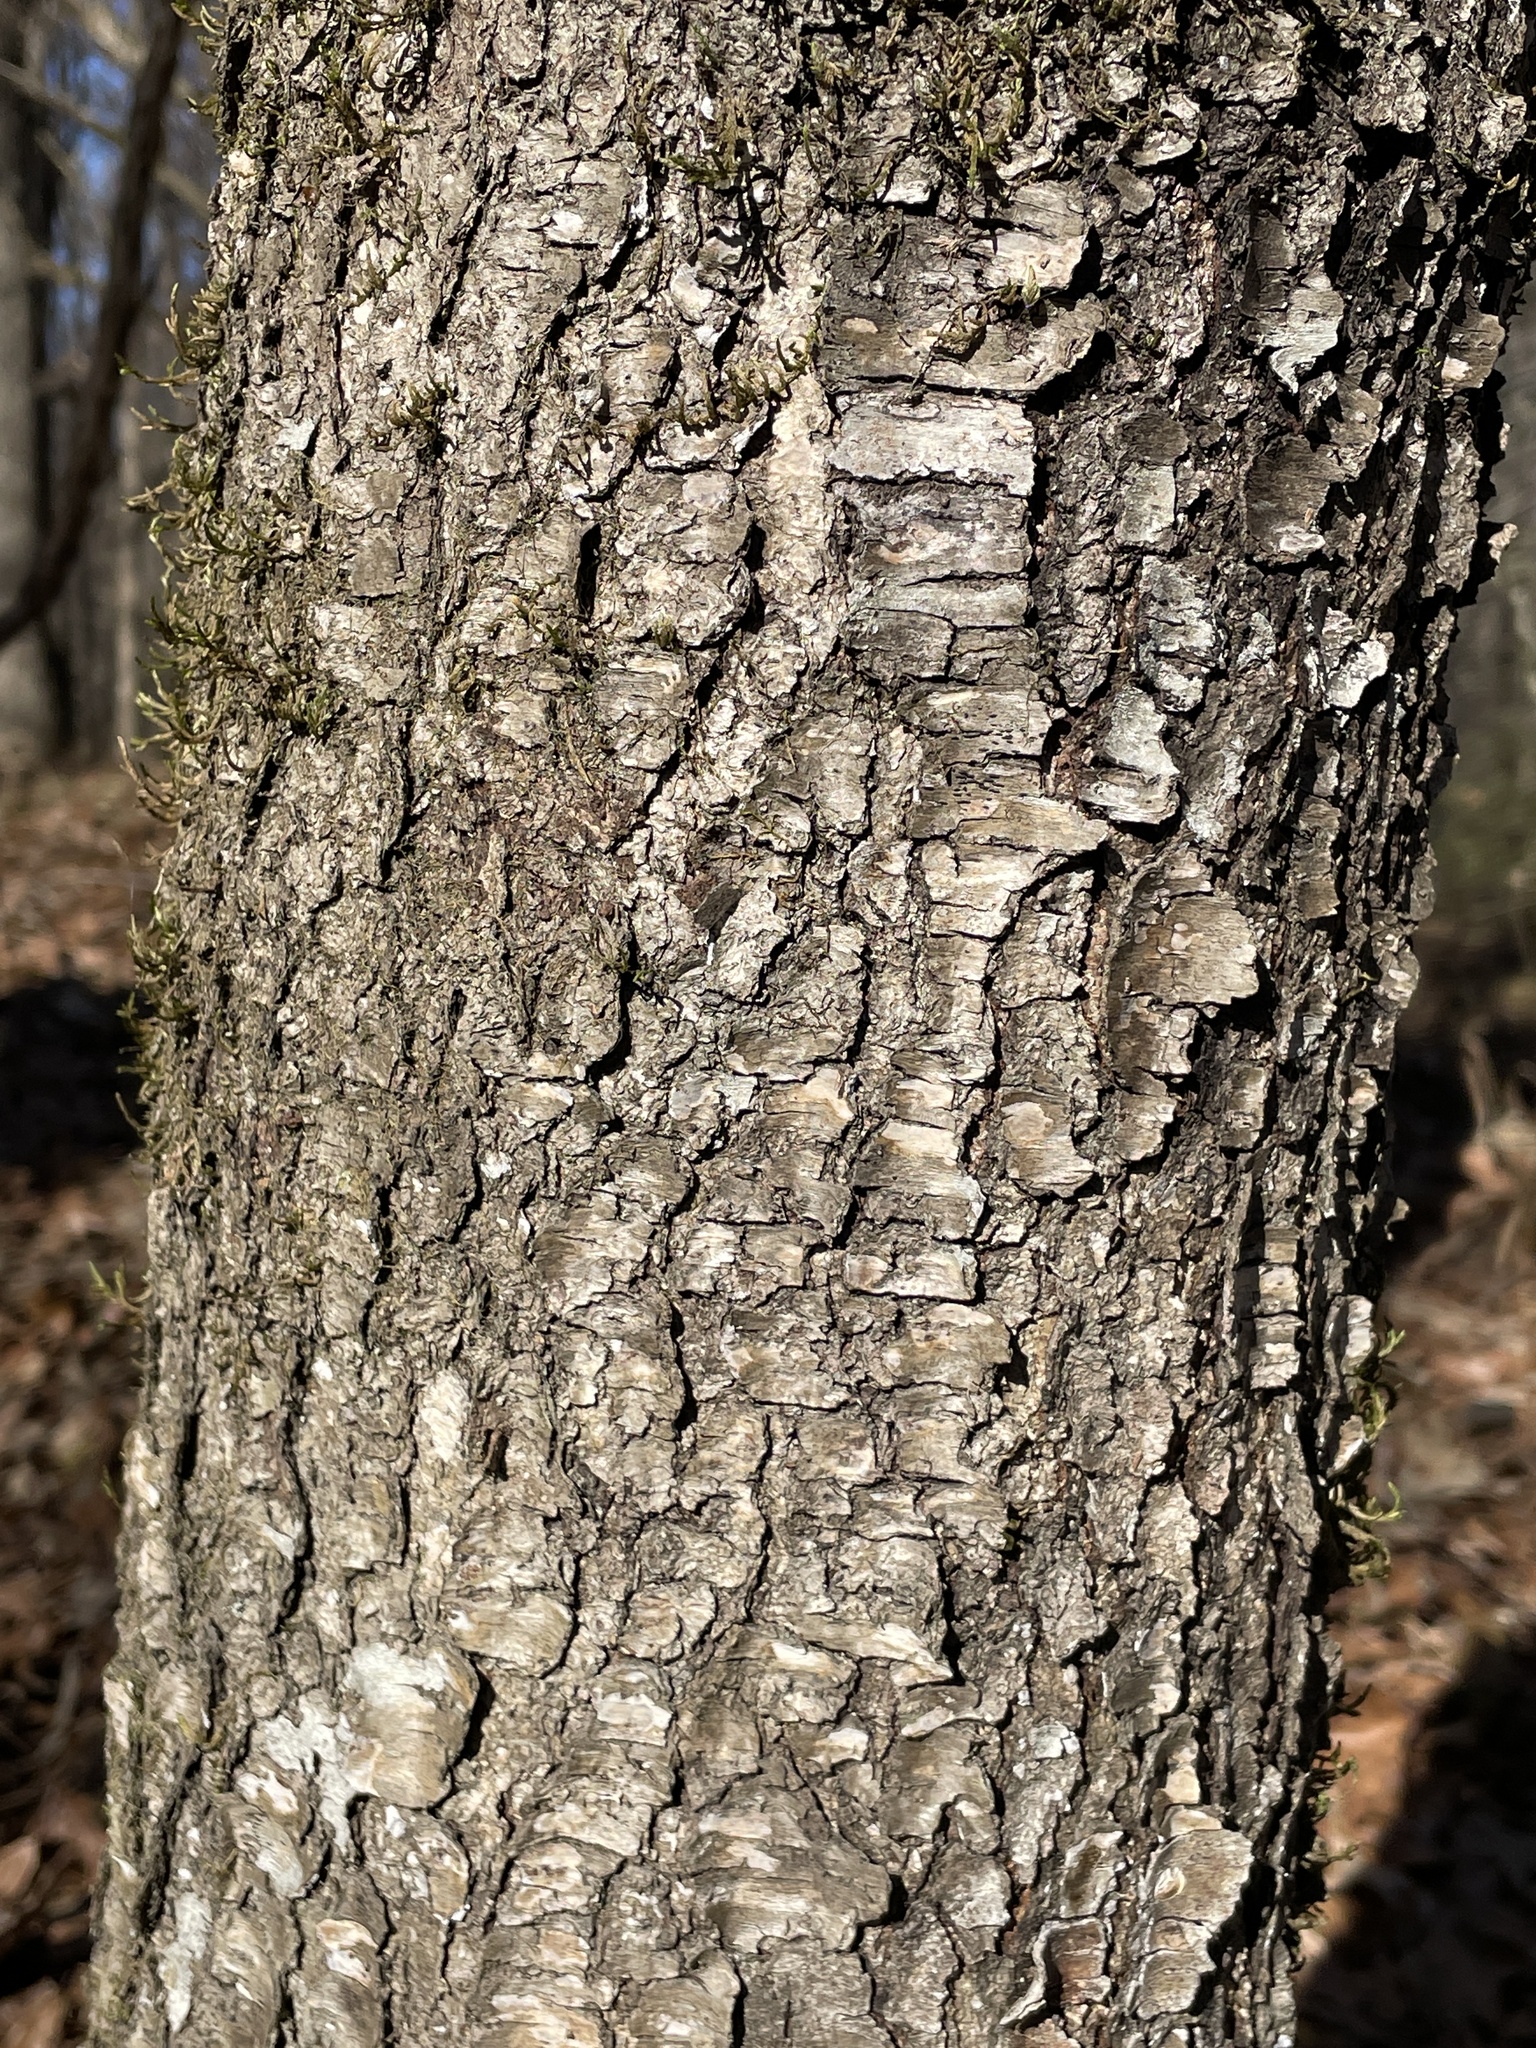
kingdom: Plantae
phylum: Tracheophyta
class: Magnoliopsida
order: Rosales
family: Rosaceae
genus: Prunus
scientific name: Prunus serotina
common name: Black cherry
